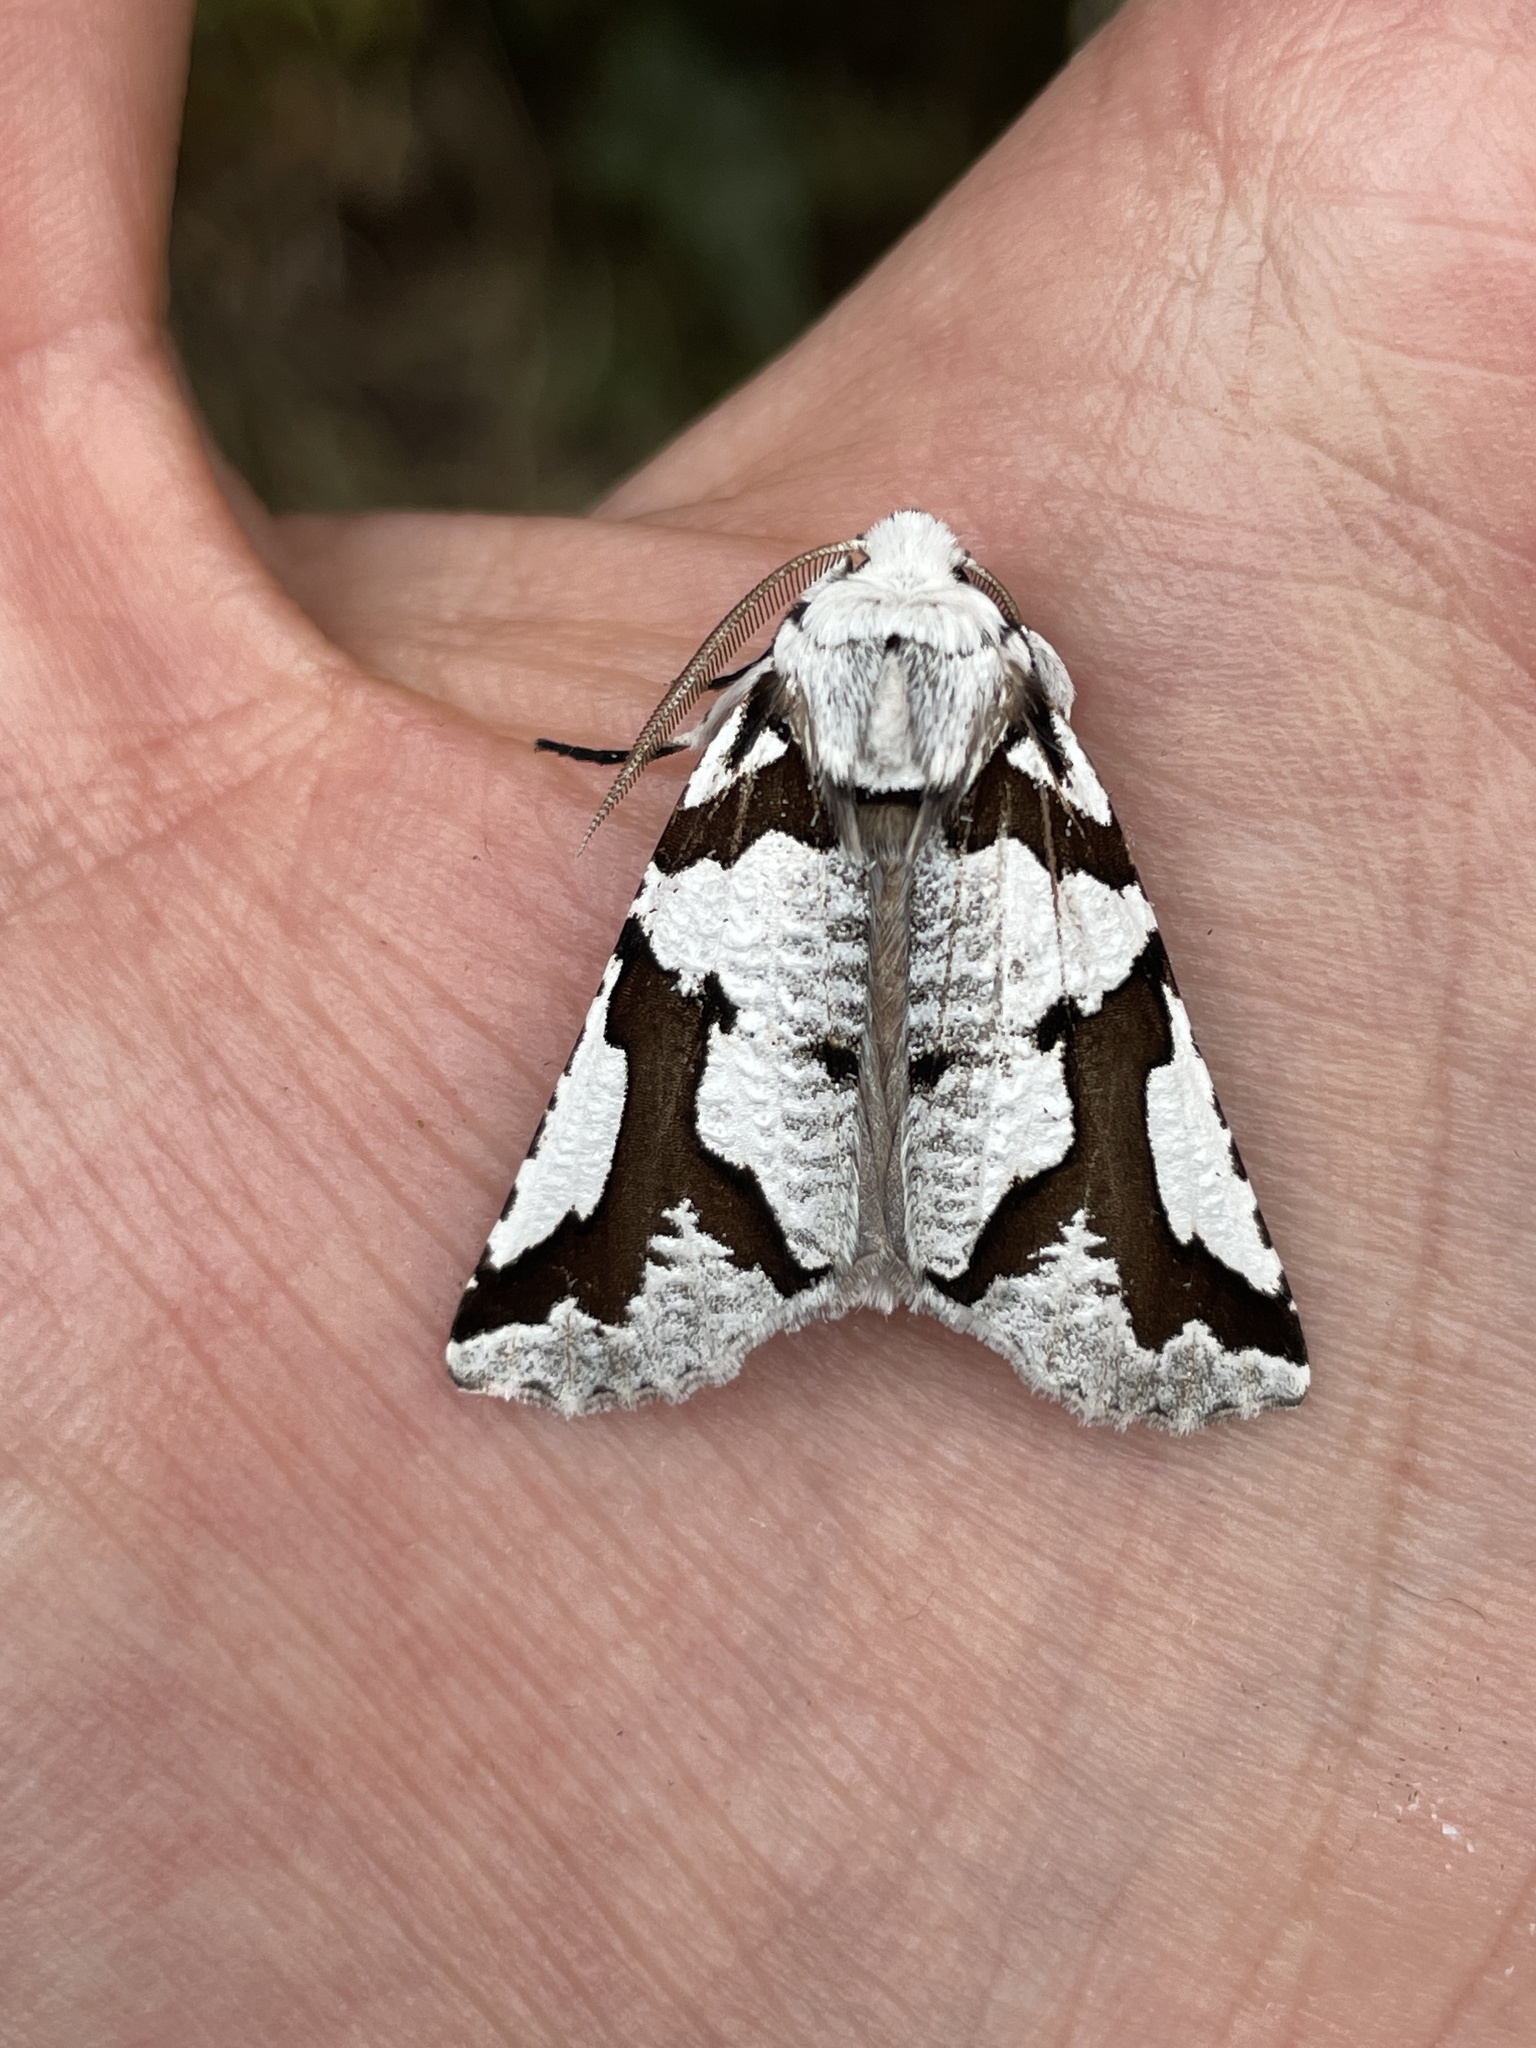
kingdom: Animalia
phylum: Arthropoda
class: Insecta
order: Lepidoptera
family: Geometridae
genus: Declana
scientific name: Declana
